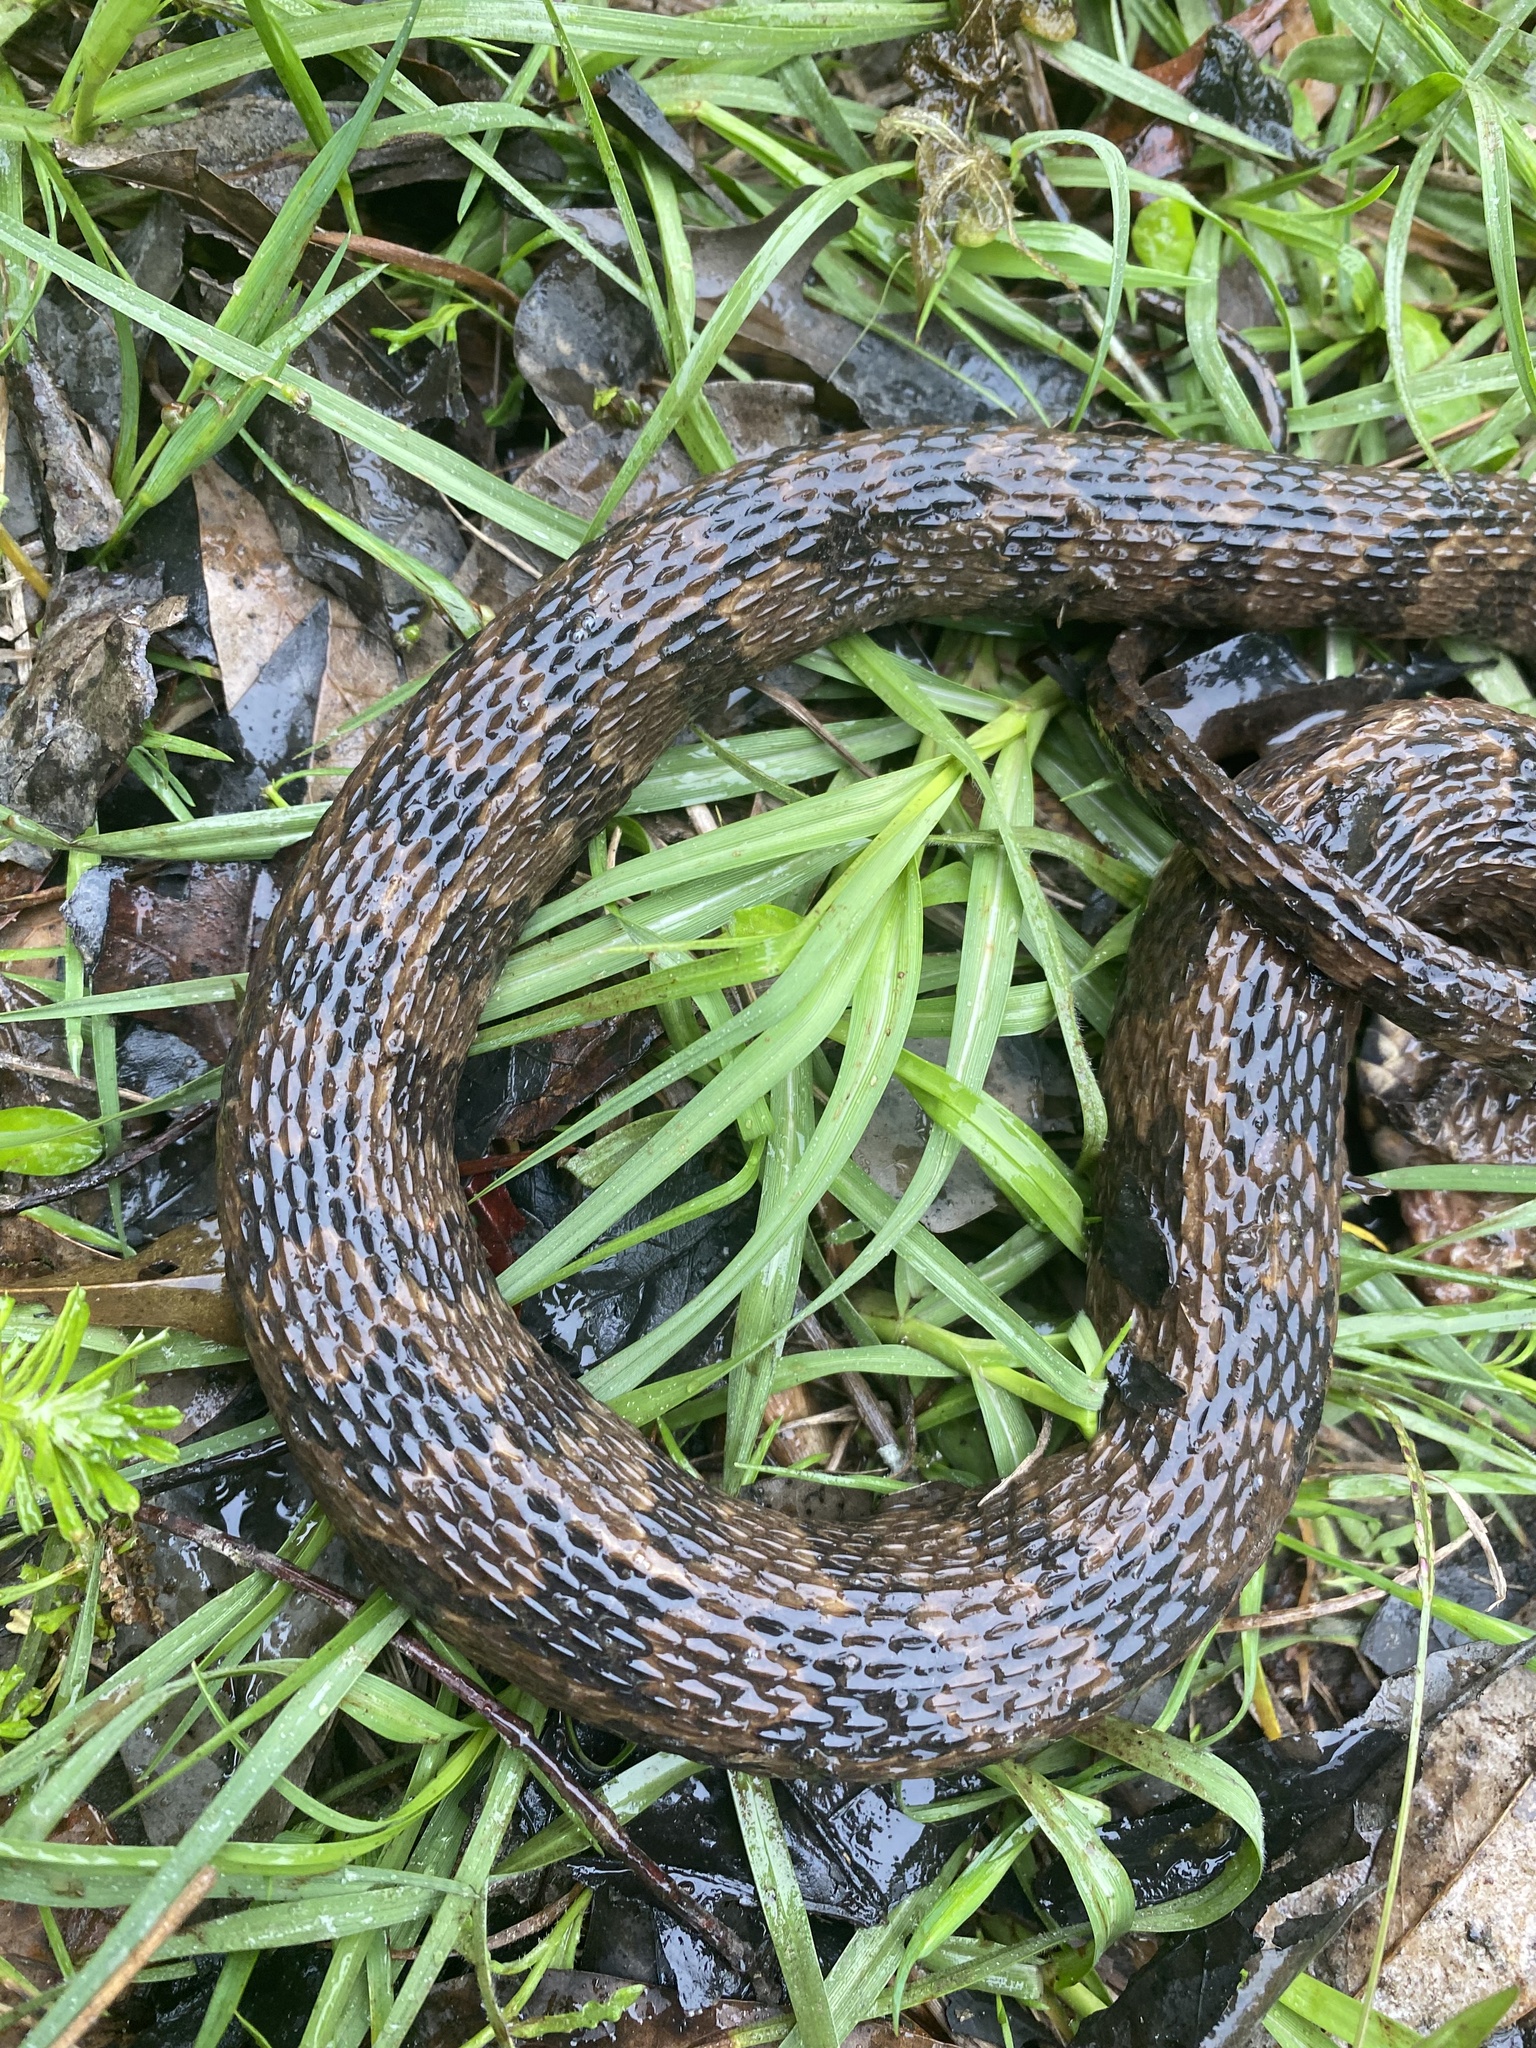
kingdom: Animalia
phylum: Chordata
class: Squamata
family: Colubridae
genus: Nerodia
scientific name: Nerodia taxispilota
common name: Brown water snake
